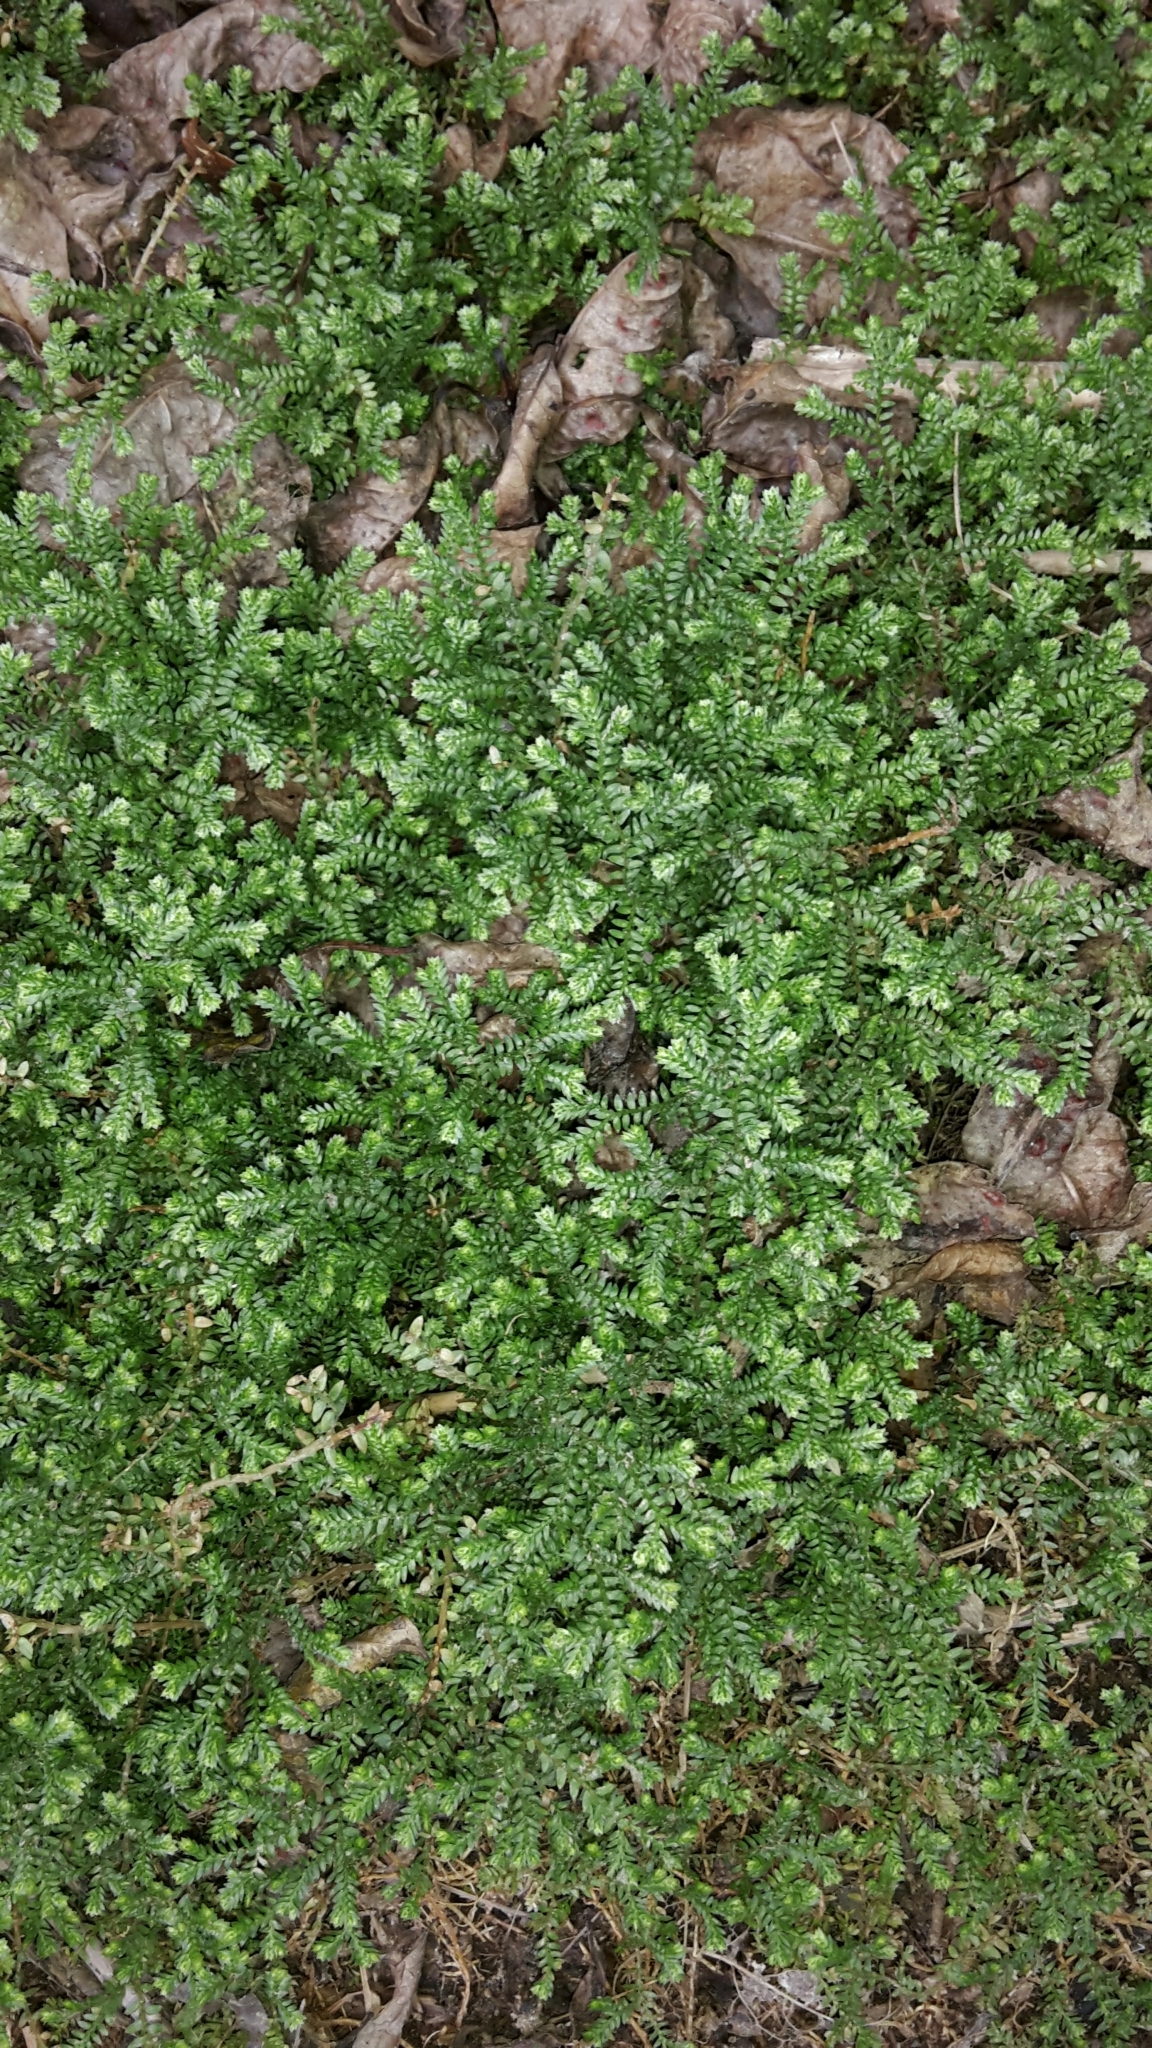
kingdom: Plantae
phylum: Tracheophyta
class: Lycopodiopsida
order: Selaginellales
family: Selaginellaceae
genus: Selaginella
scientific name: Selaginella kraussiana
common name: Krauss' spikemoss
